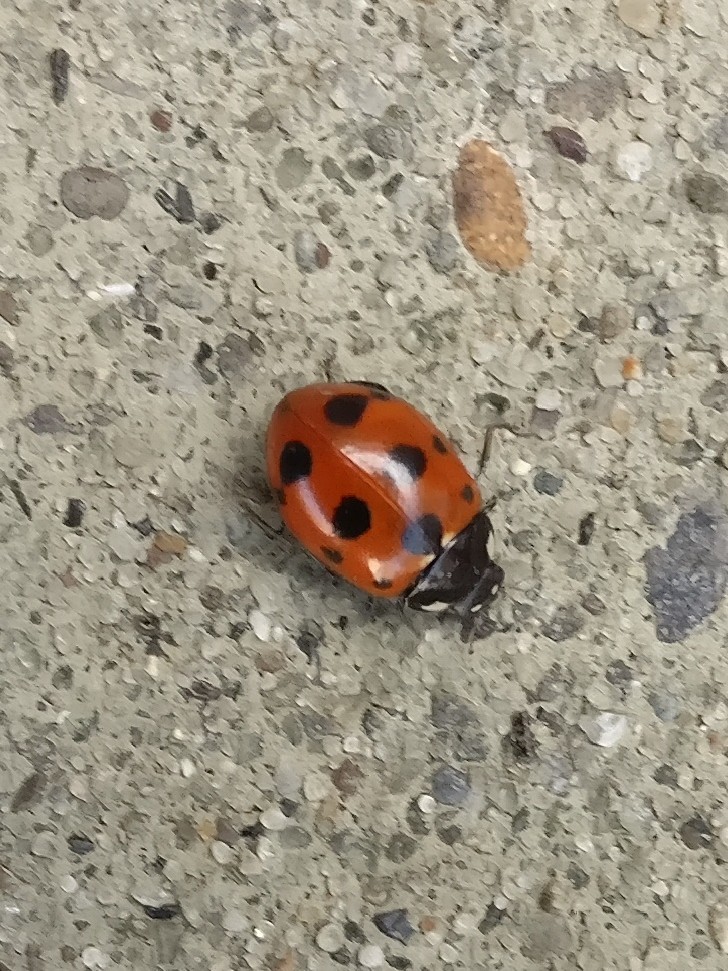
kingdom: Animalia
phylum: Arthropoda
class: Insecta
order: Coleoptera
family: Coccinellidae
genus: Coccinella
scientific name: Coccinella undecimpunctata
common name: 11-spot ladybird
